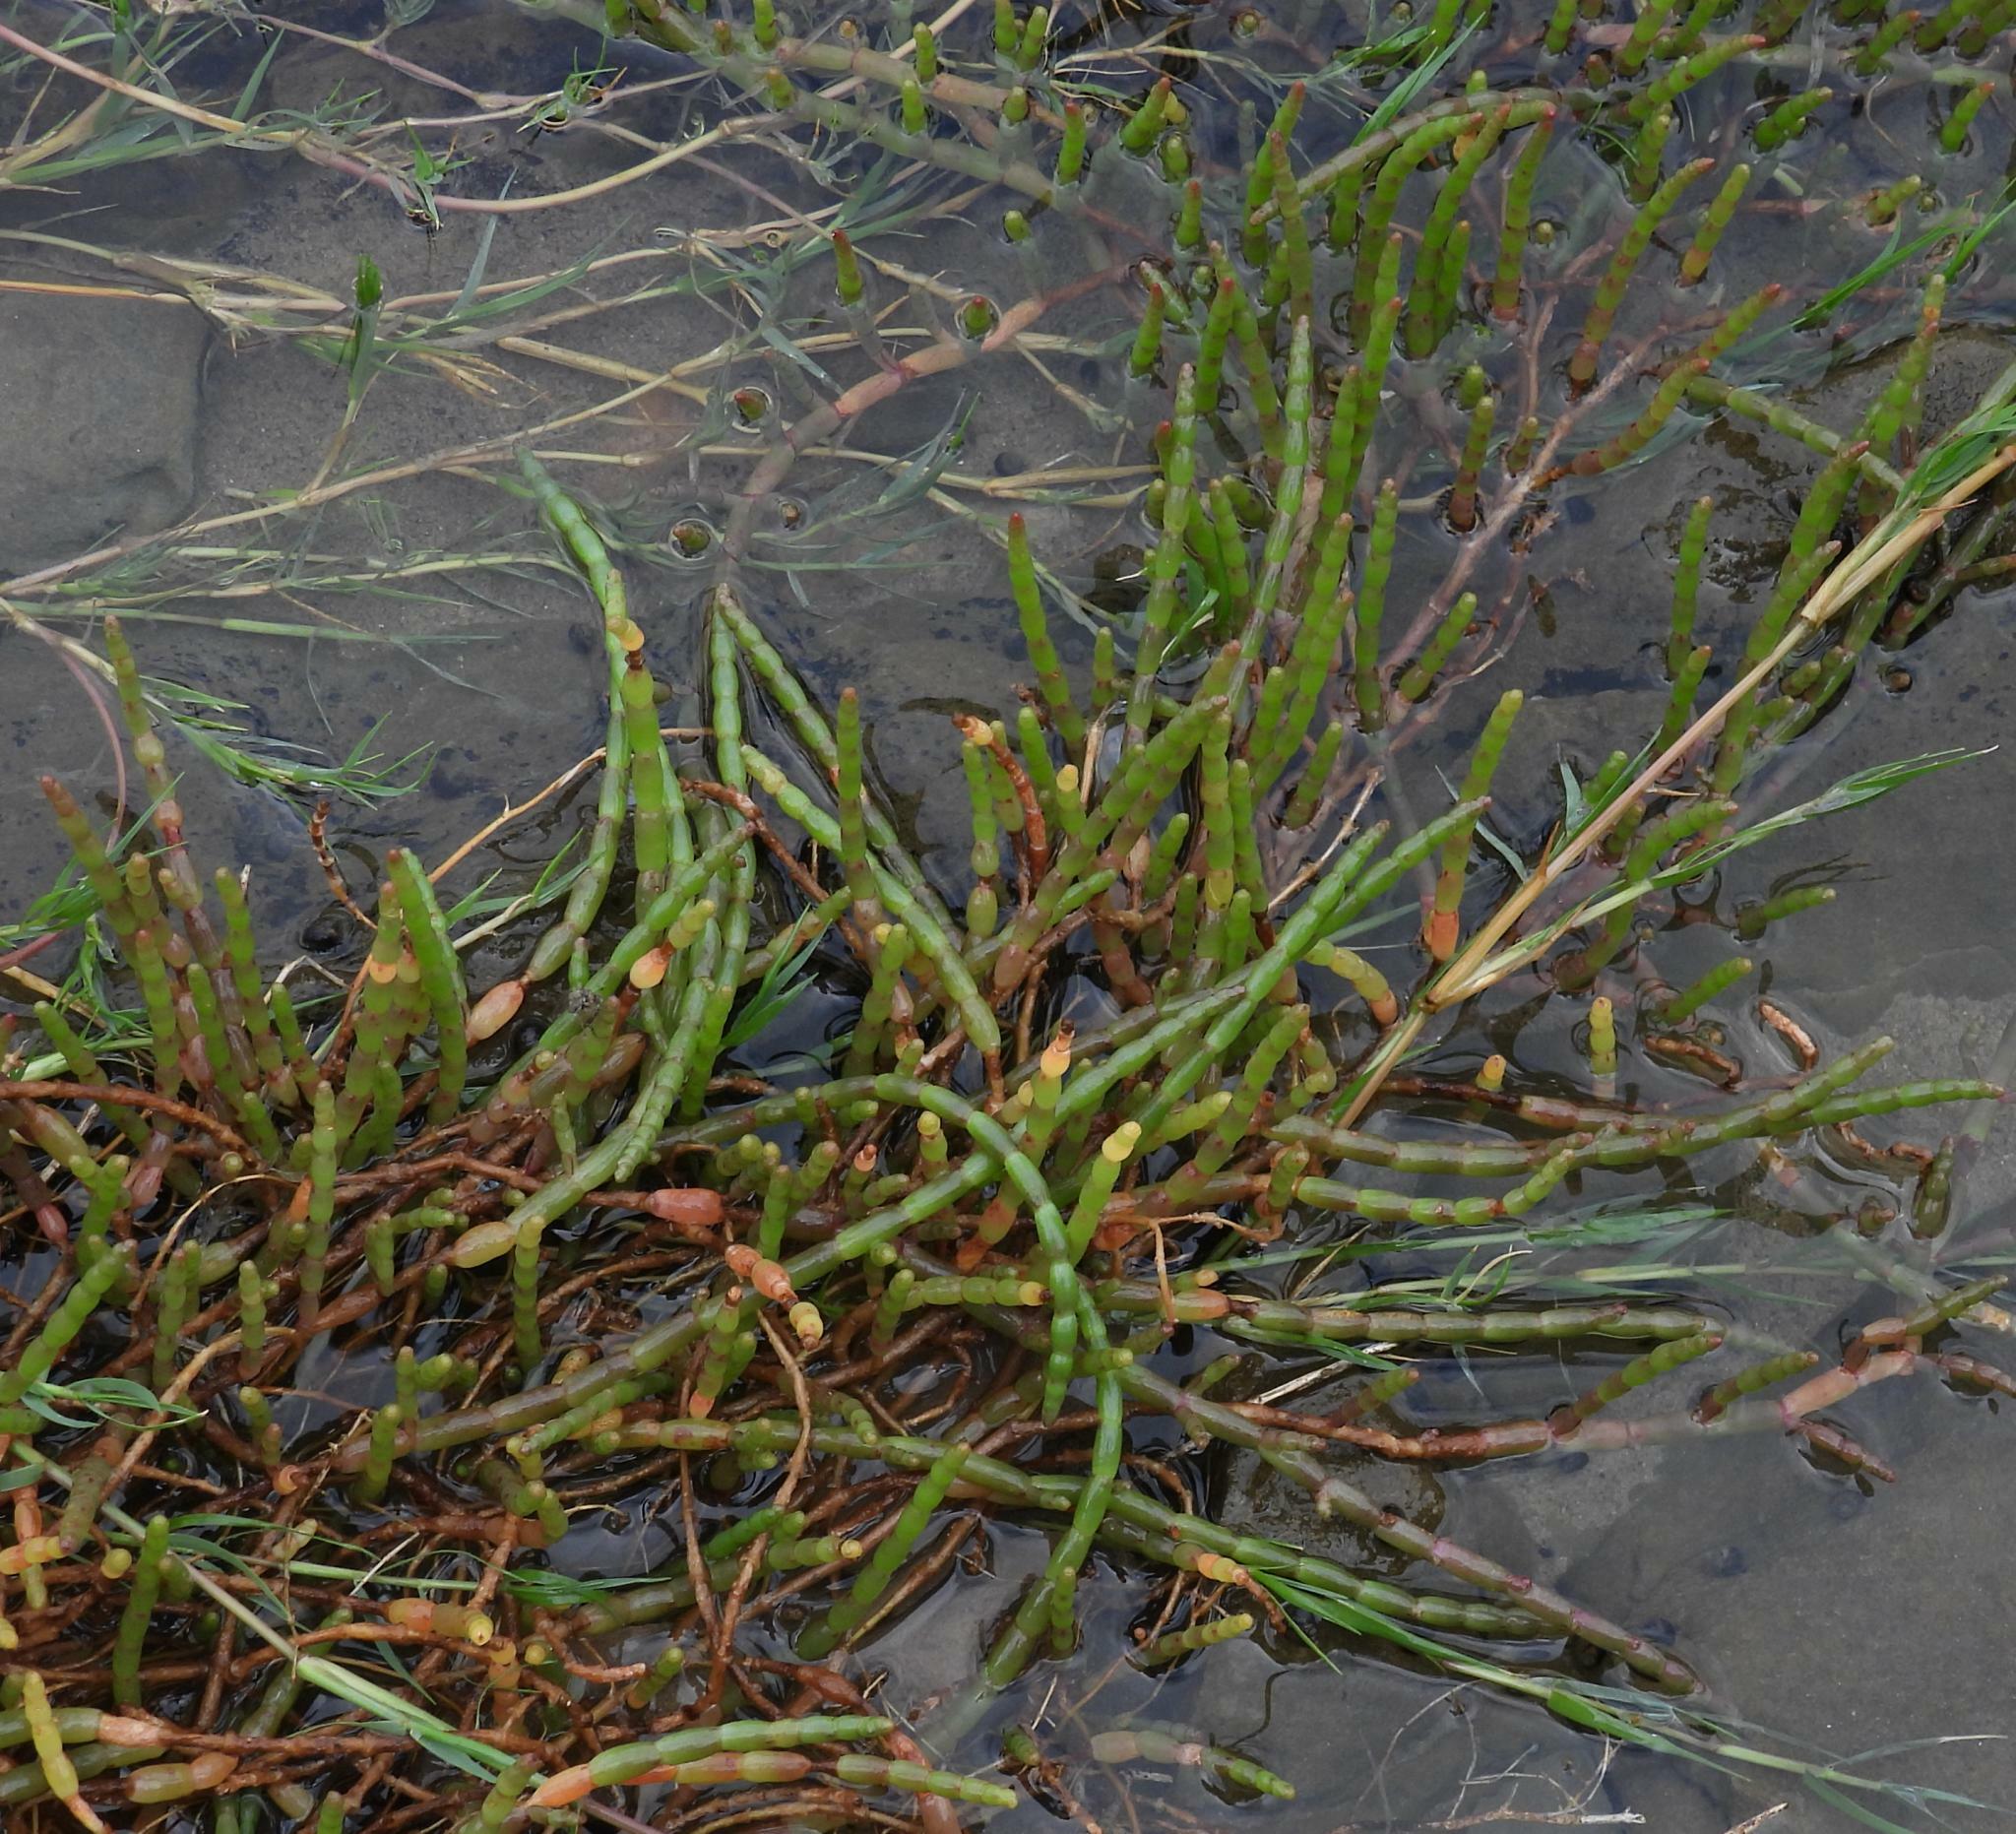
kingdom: Plantae
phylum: Tracheophyta
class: Magnoliopsida
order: Caryophyllales
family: Amaranthaceae
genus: Salicornia
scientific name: Salicornia tegetaria
